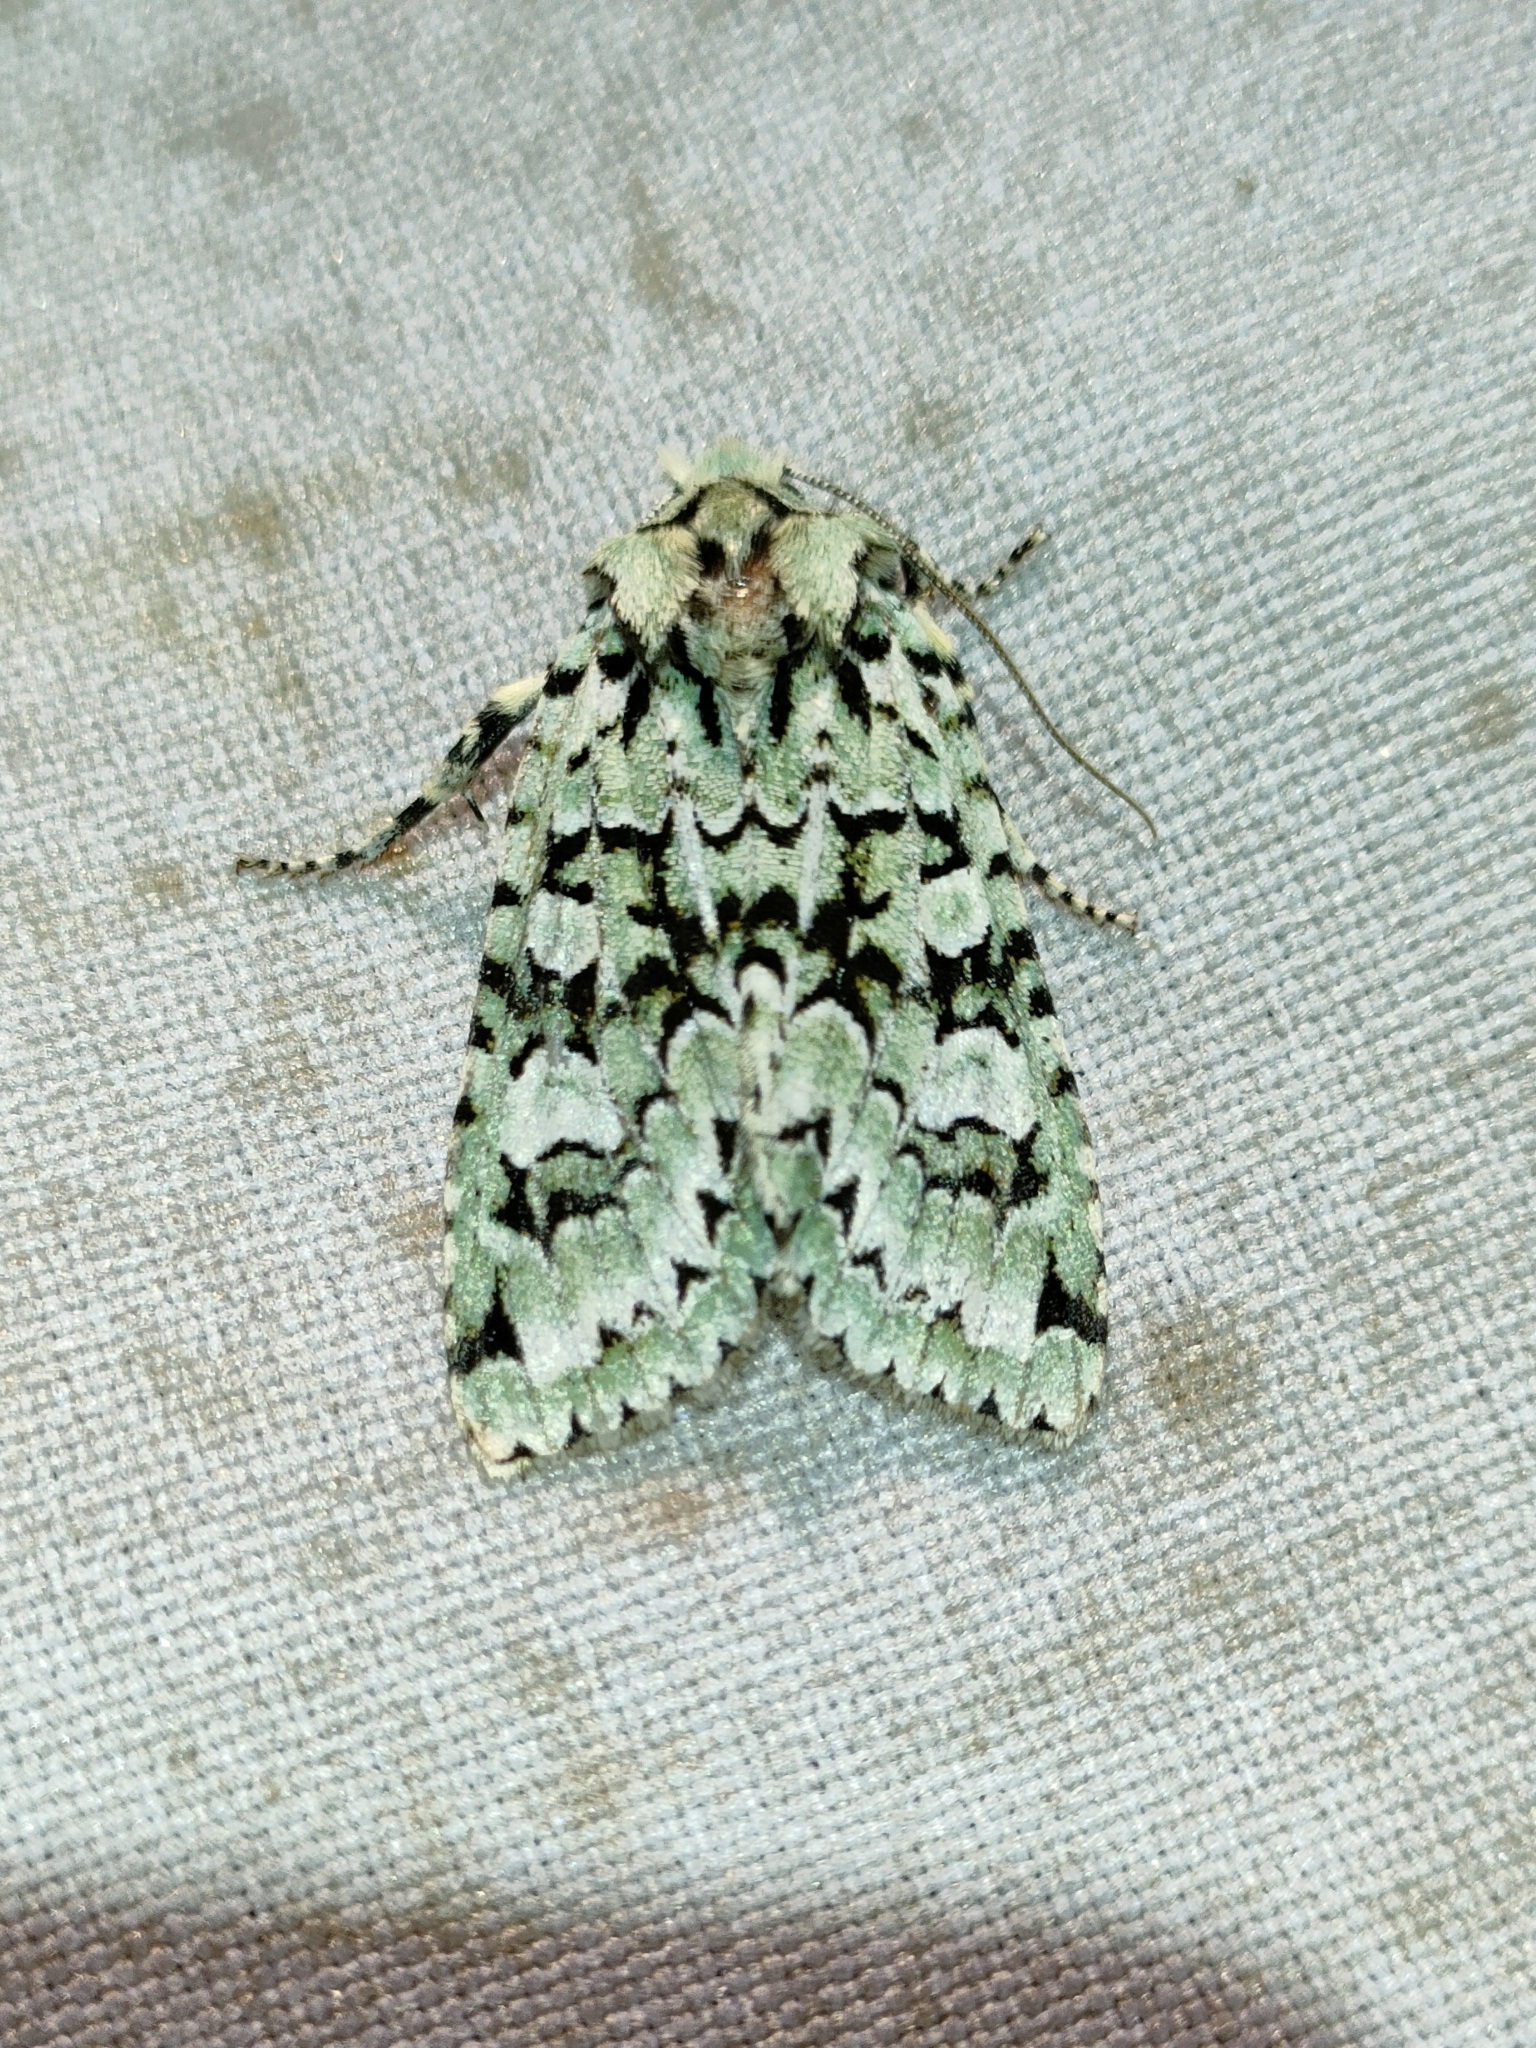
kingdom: Animalia
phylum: Arthropoda
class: Insecta
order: Lepidoptera
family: Noctuidae
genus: Griposia
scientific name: Griposia aprilina
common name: Merveille du jour
